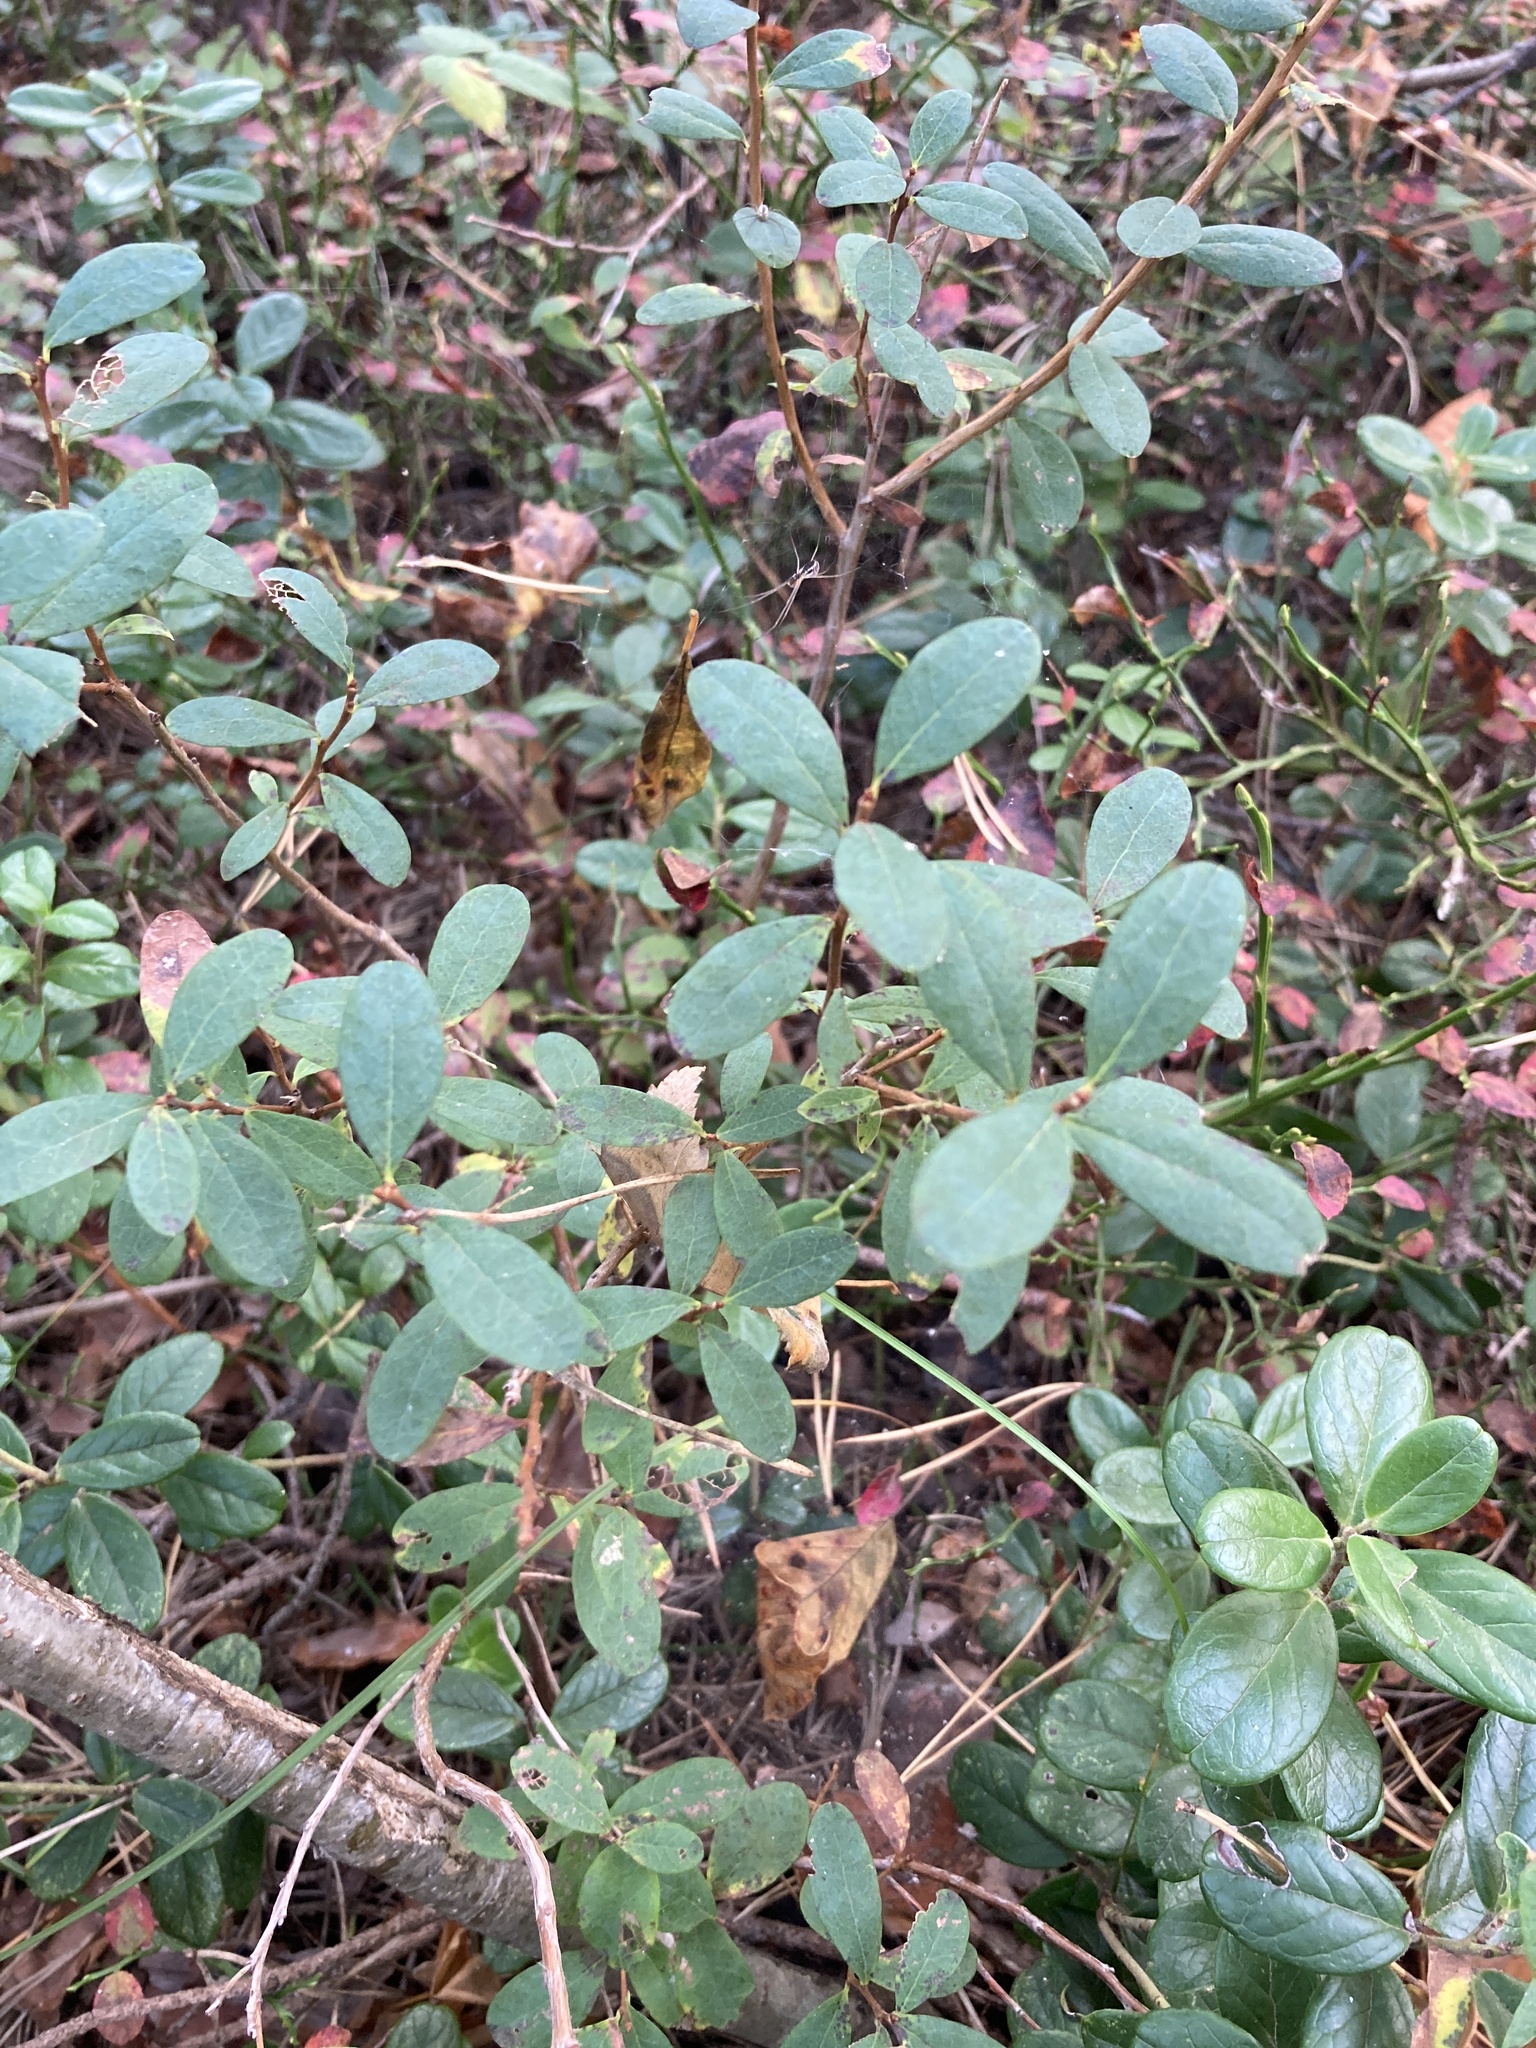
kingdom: Plantae
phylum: Tracheophyta
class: Magnoliopsida
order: Ericales
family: Ericaceae
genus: Vaccinium
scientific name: Vaccinium uliginosum
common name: Bog bilberry
